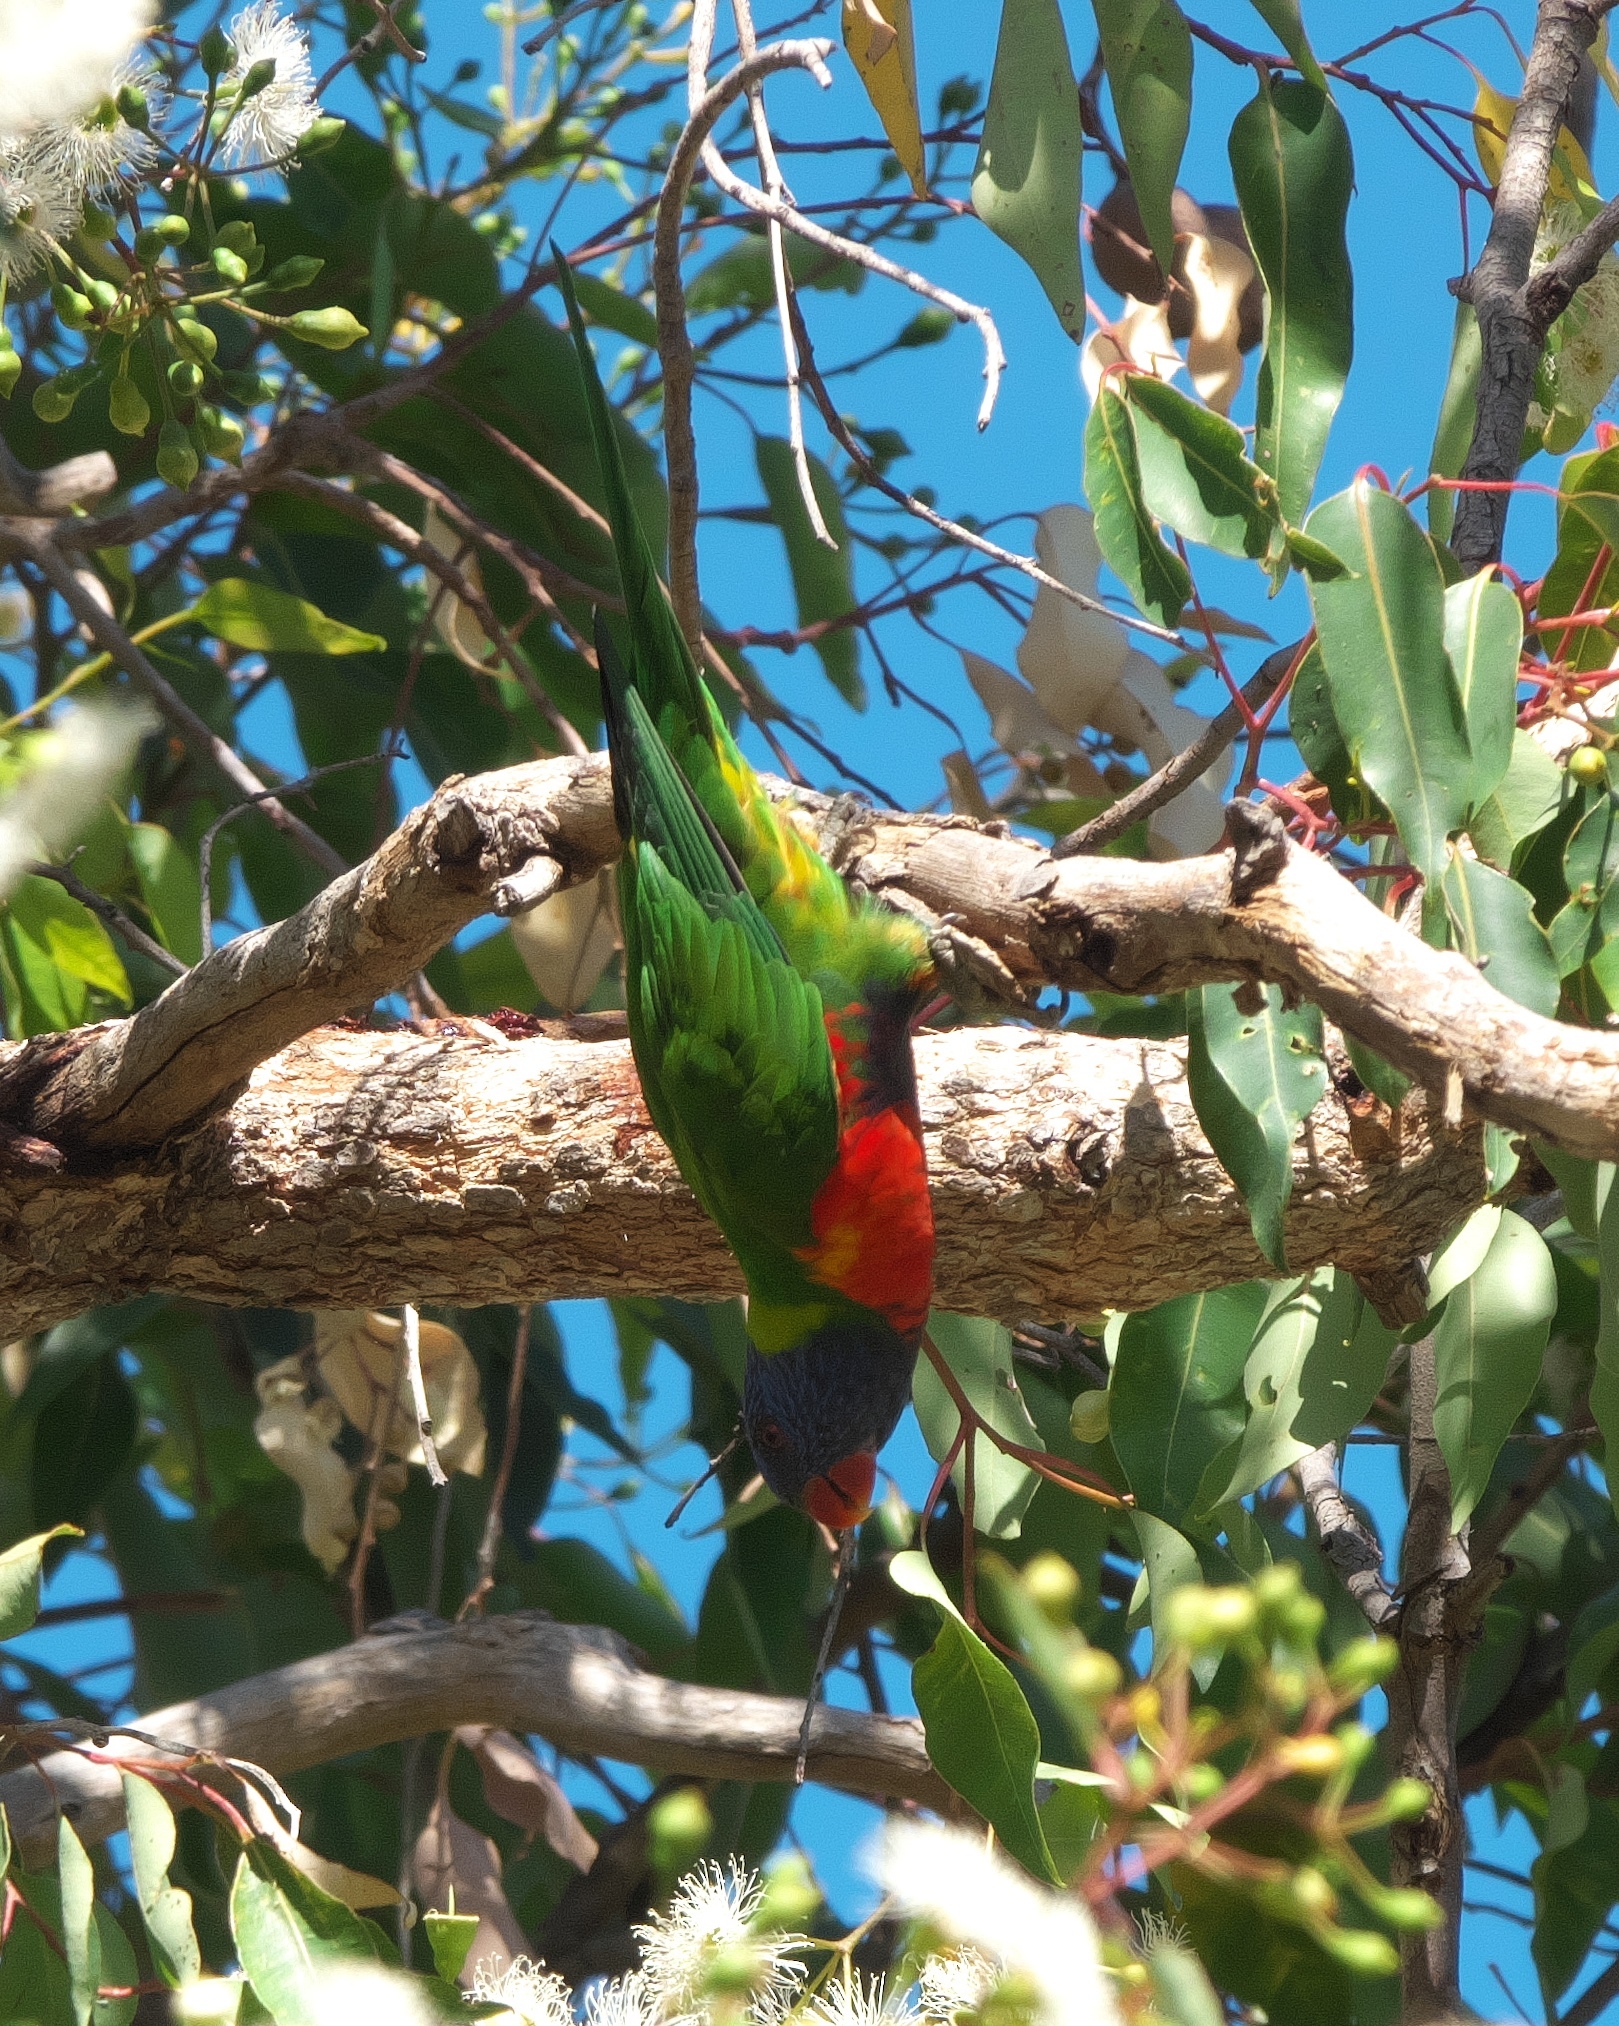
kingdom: Animalia
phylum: Chordata
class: Aves
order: Psittaciformes
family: Psittacidae
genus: Trichoglossus
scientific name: Trichoglossus haematodus
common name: Coconut lorikeet
